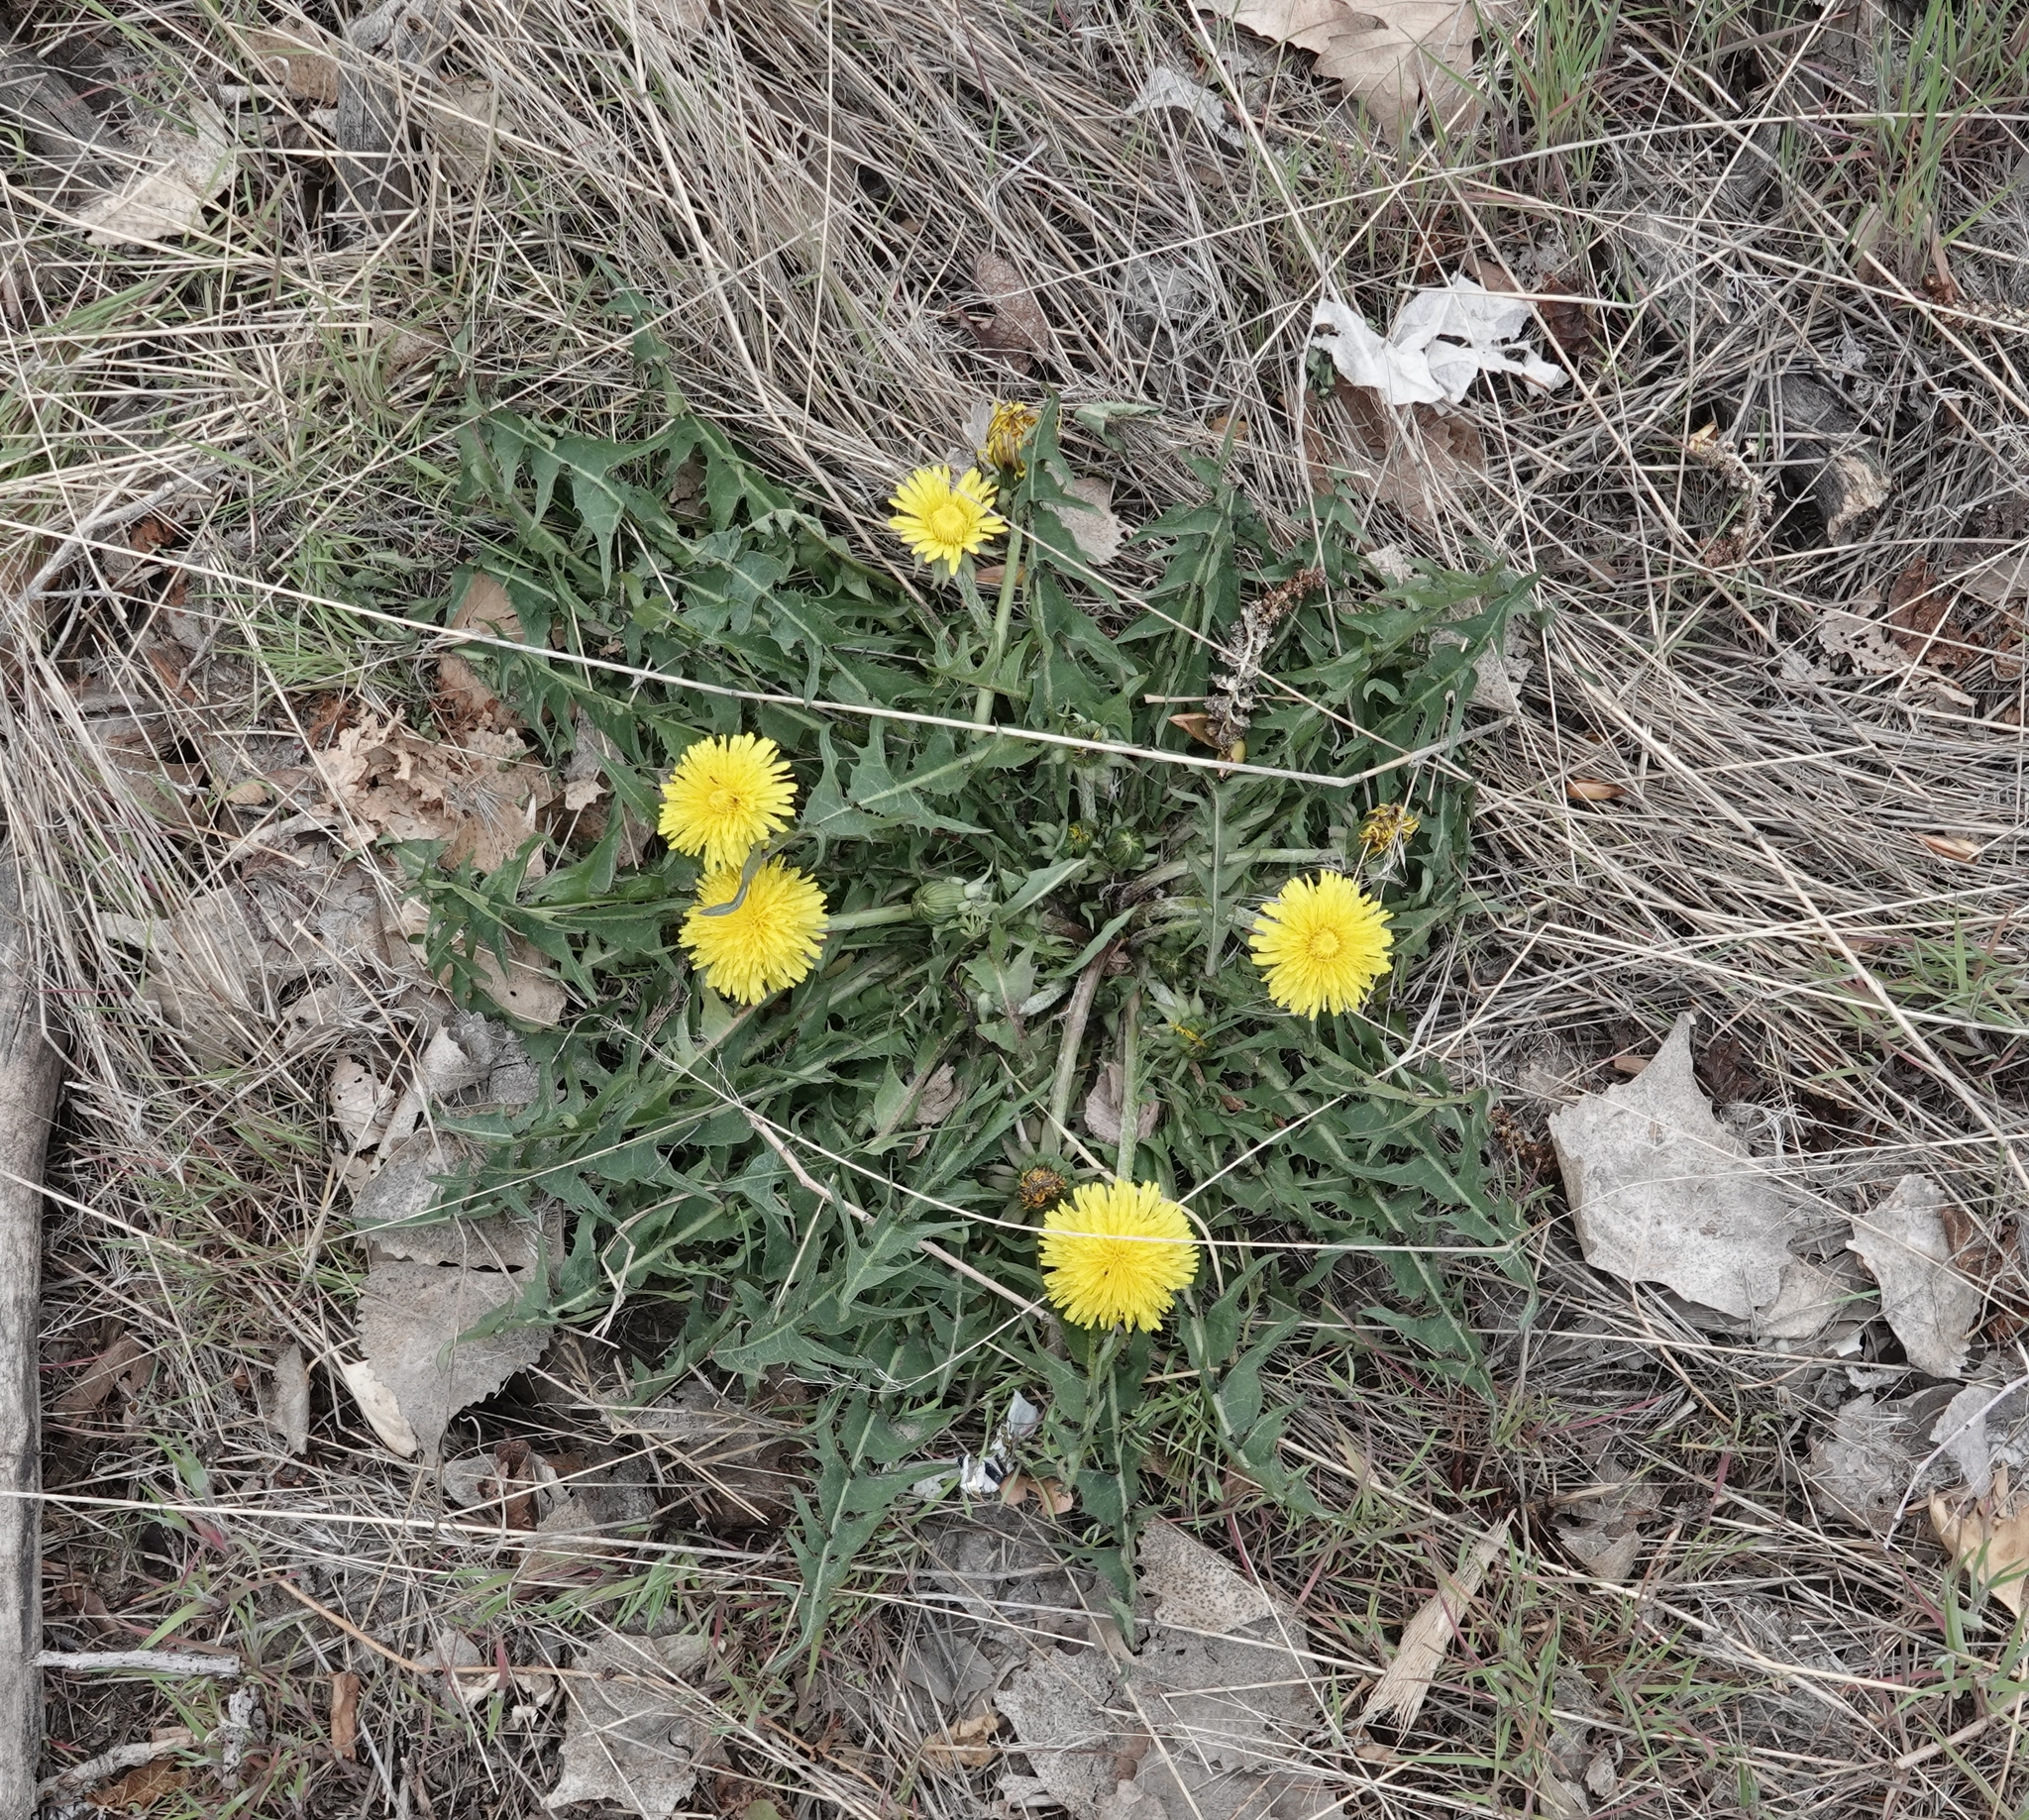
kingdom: Plantae
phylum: Tracheophyta
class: Magnoliopsida
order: Asterales
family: Asteraceae
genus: Taraxacum
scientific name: Taraxacum
